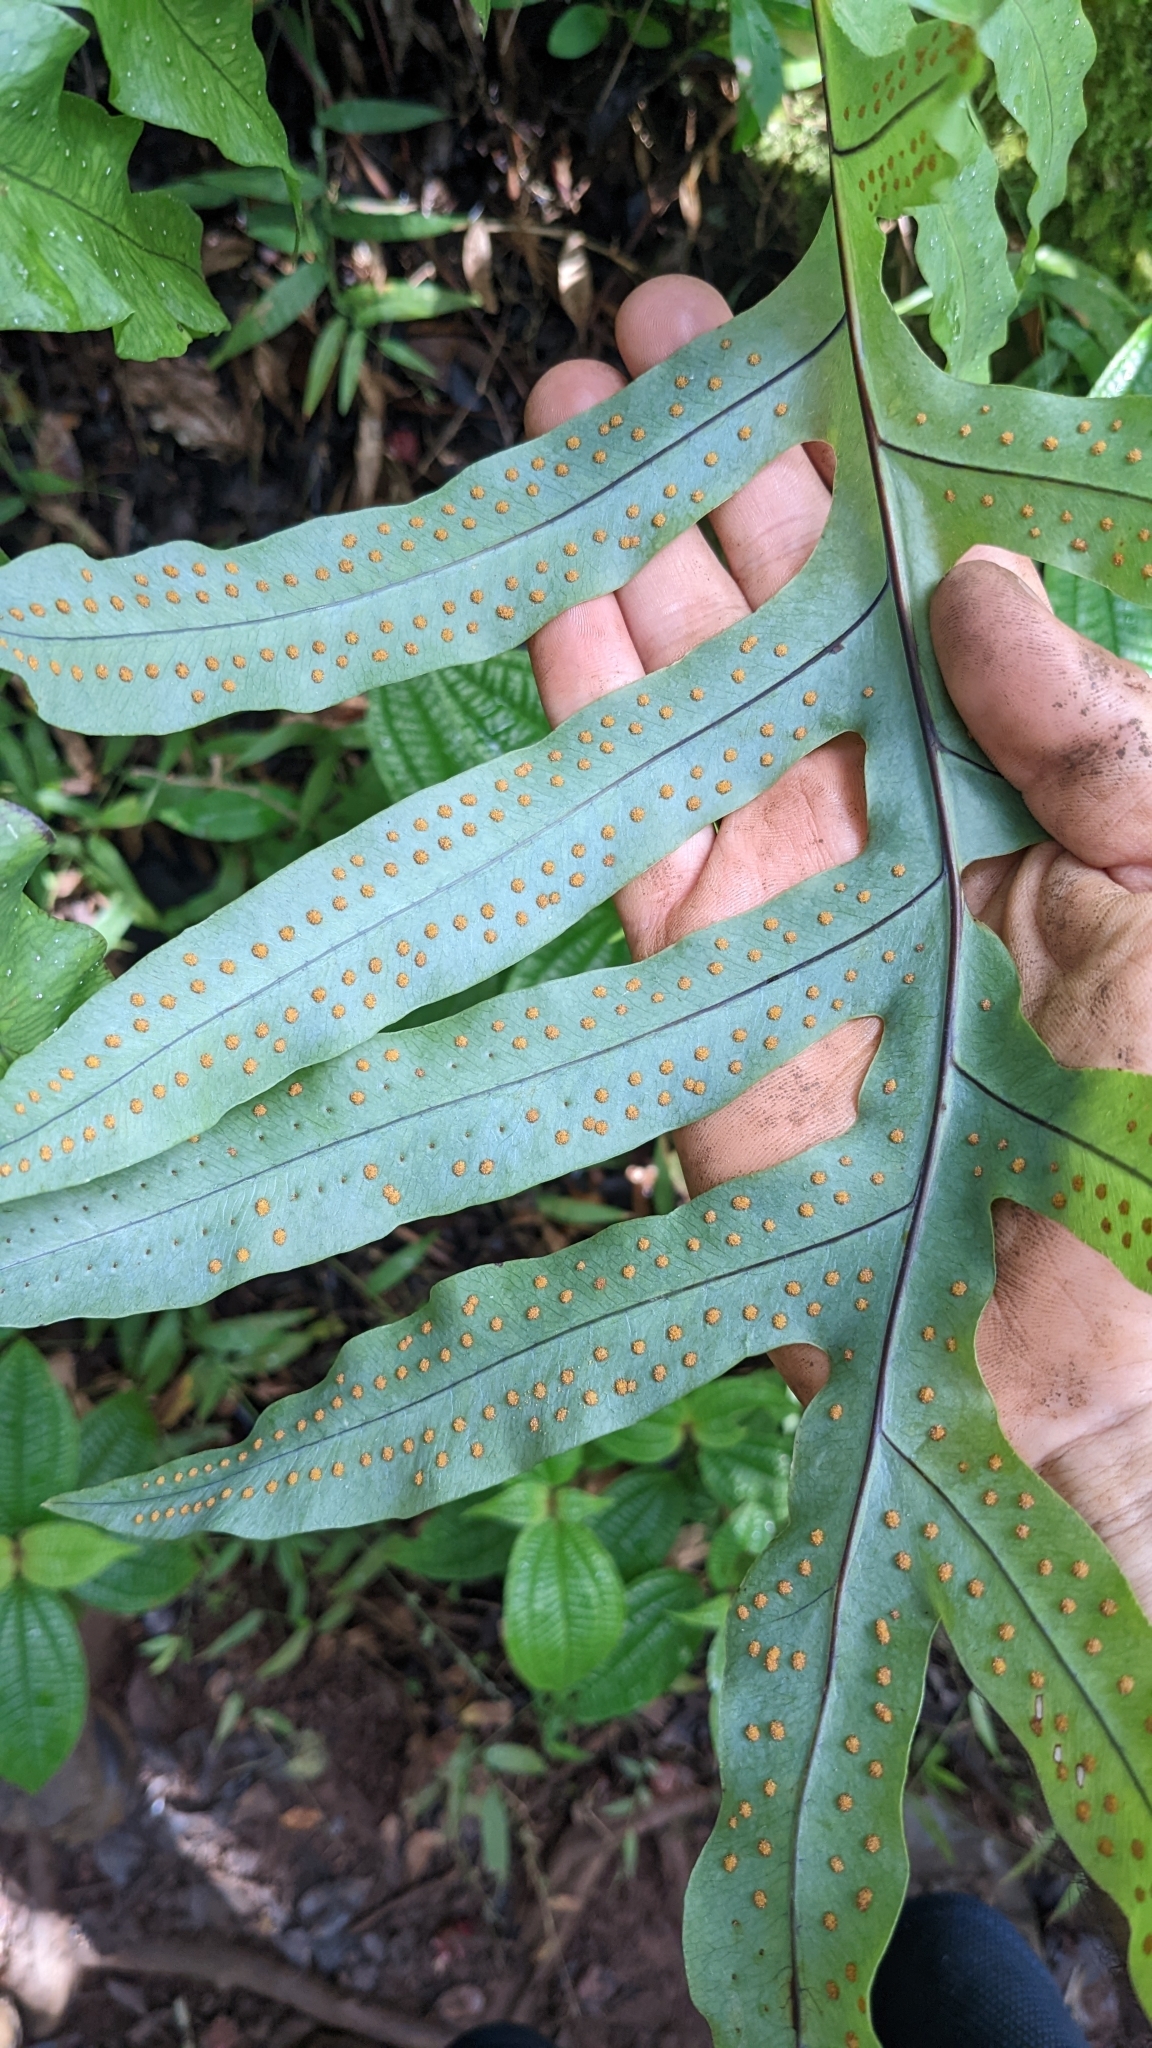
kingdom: Plantae
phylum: Tracheophyta
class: Polypodiopsida
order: Polypodiales
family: Polypodiaceae
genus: Phlebodium
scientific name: Phlebodium aureum
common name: Gold-foot fern
